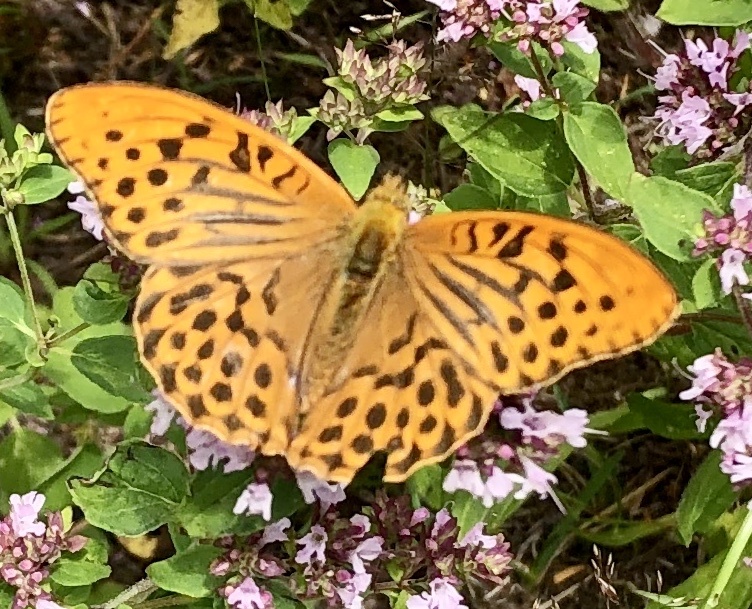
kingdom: Animalia
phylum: Arthropoda
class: Insecta
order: Lepidoptera
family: Nymphalidae
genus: Argynnis
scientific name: Argynnis paphia
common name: Silver-washed fritillary
